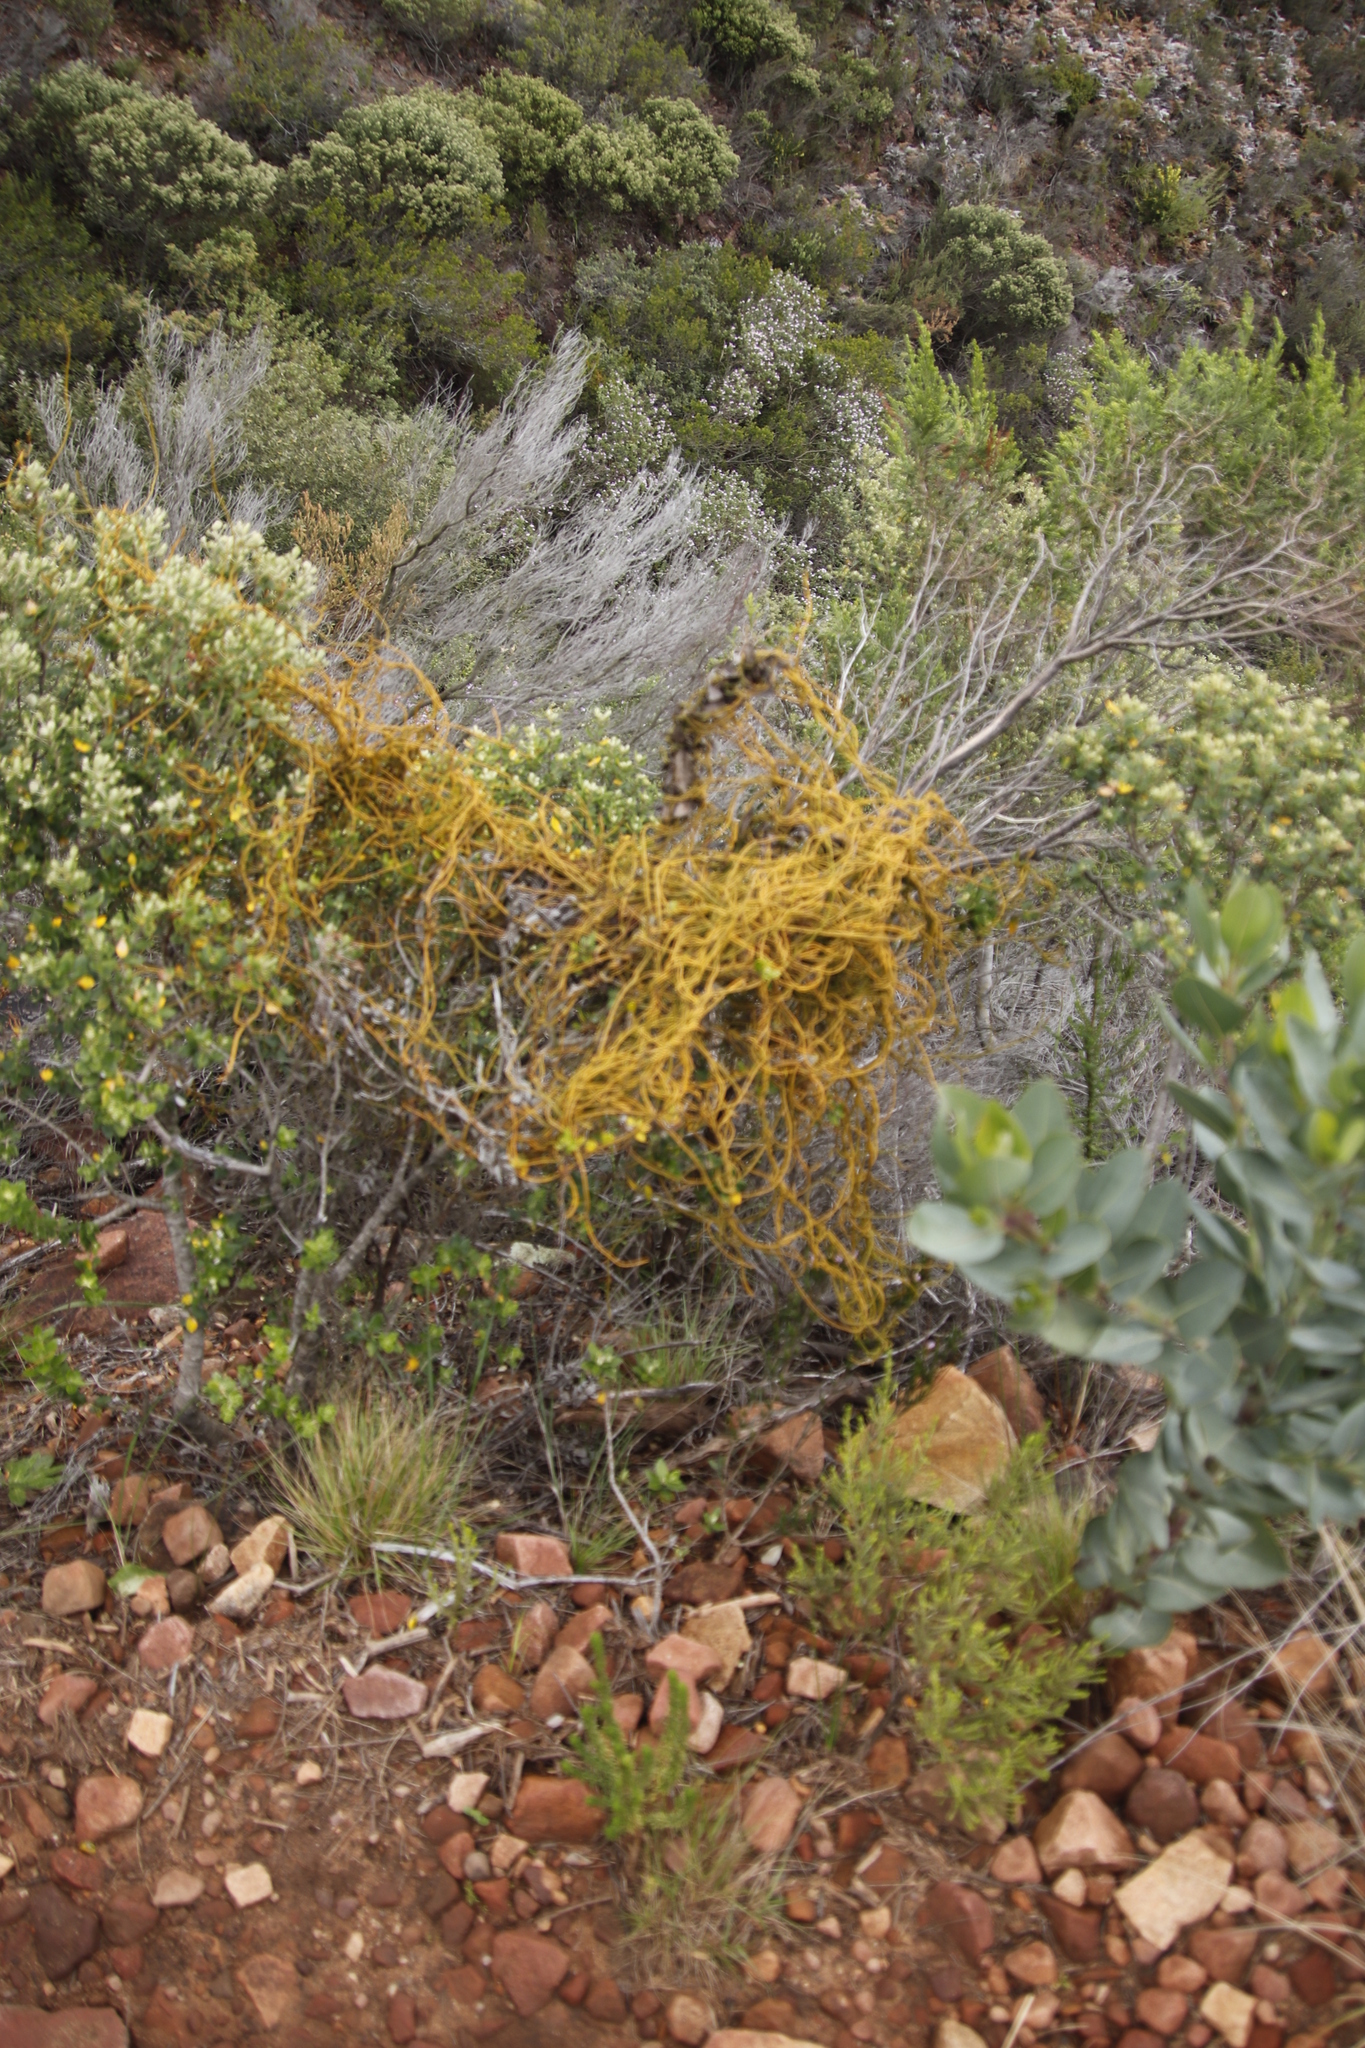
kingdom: Plantae
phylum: Tracheophyta
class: Magnoliopsida
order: Laurales
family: Lauraceae
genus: Cassytha
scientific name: Cassytha ciliolata
